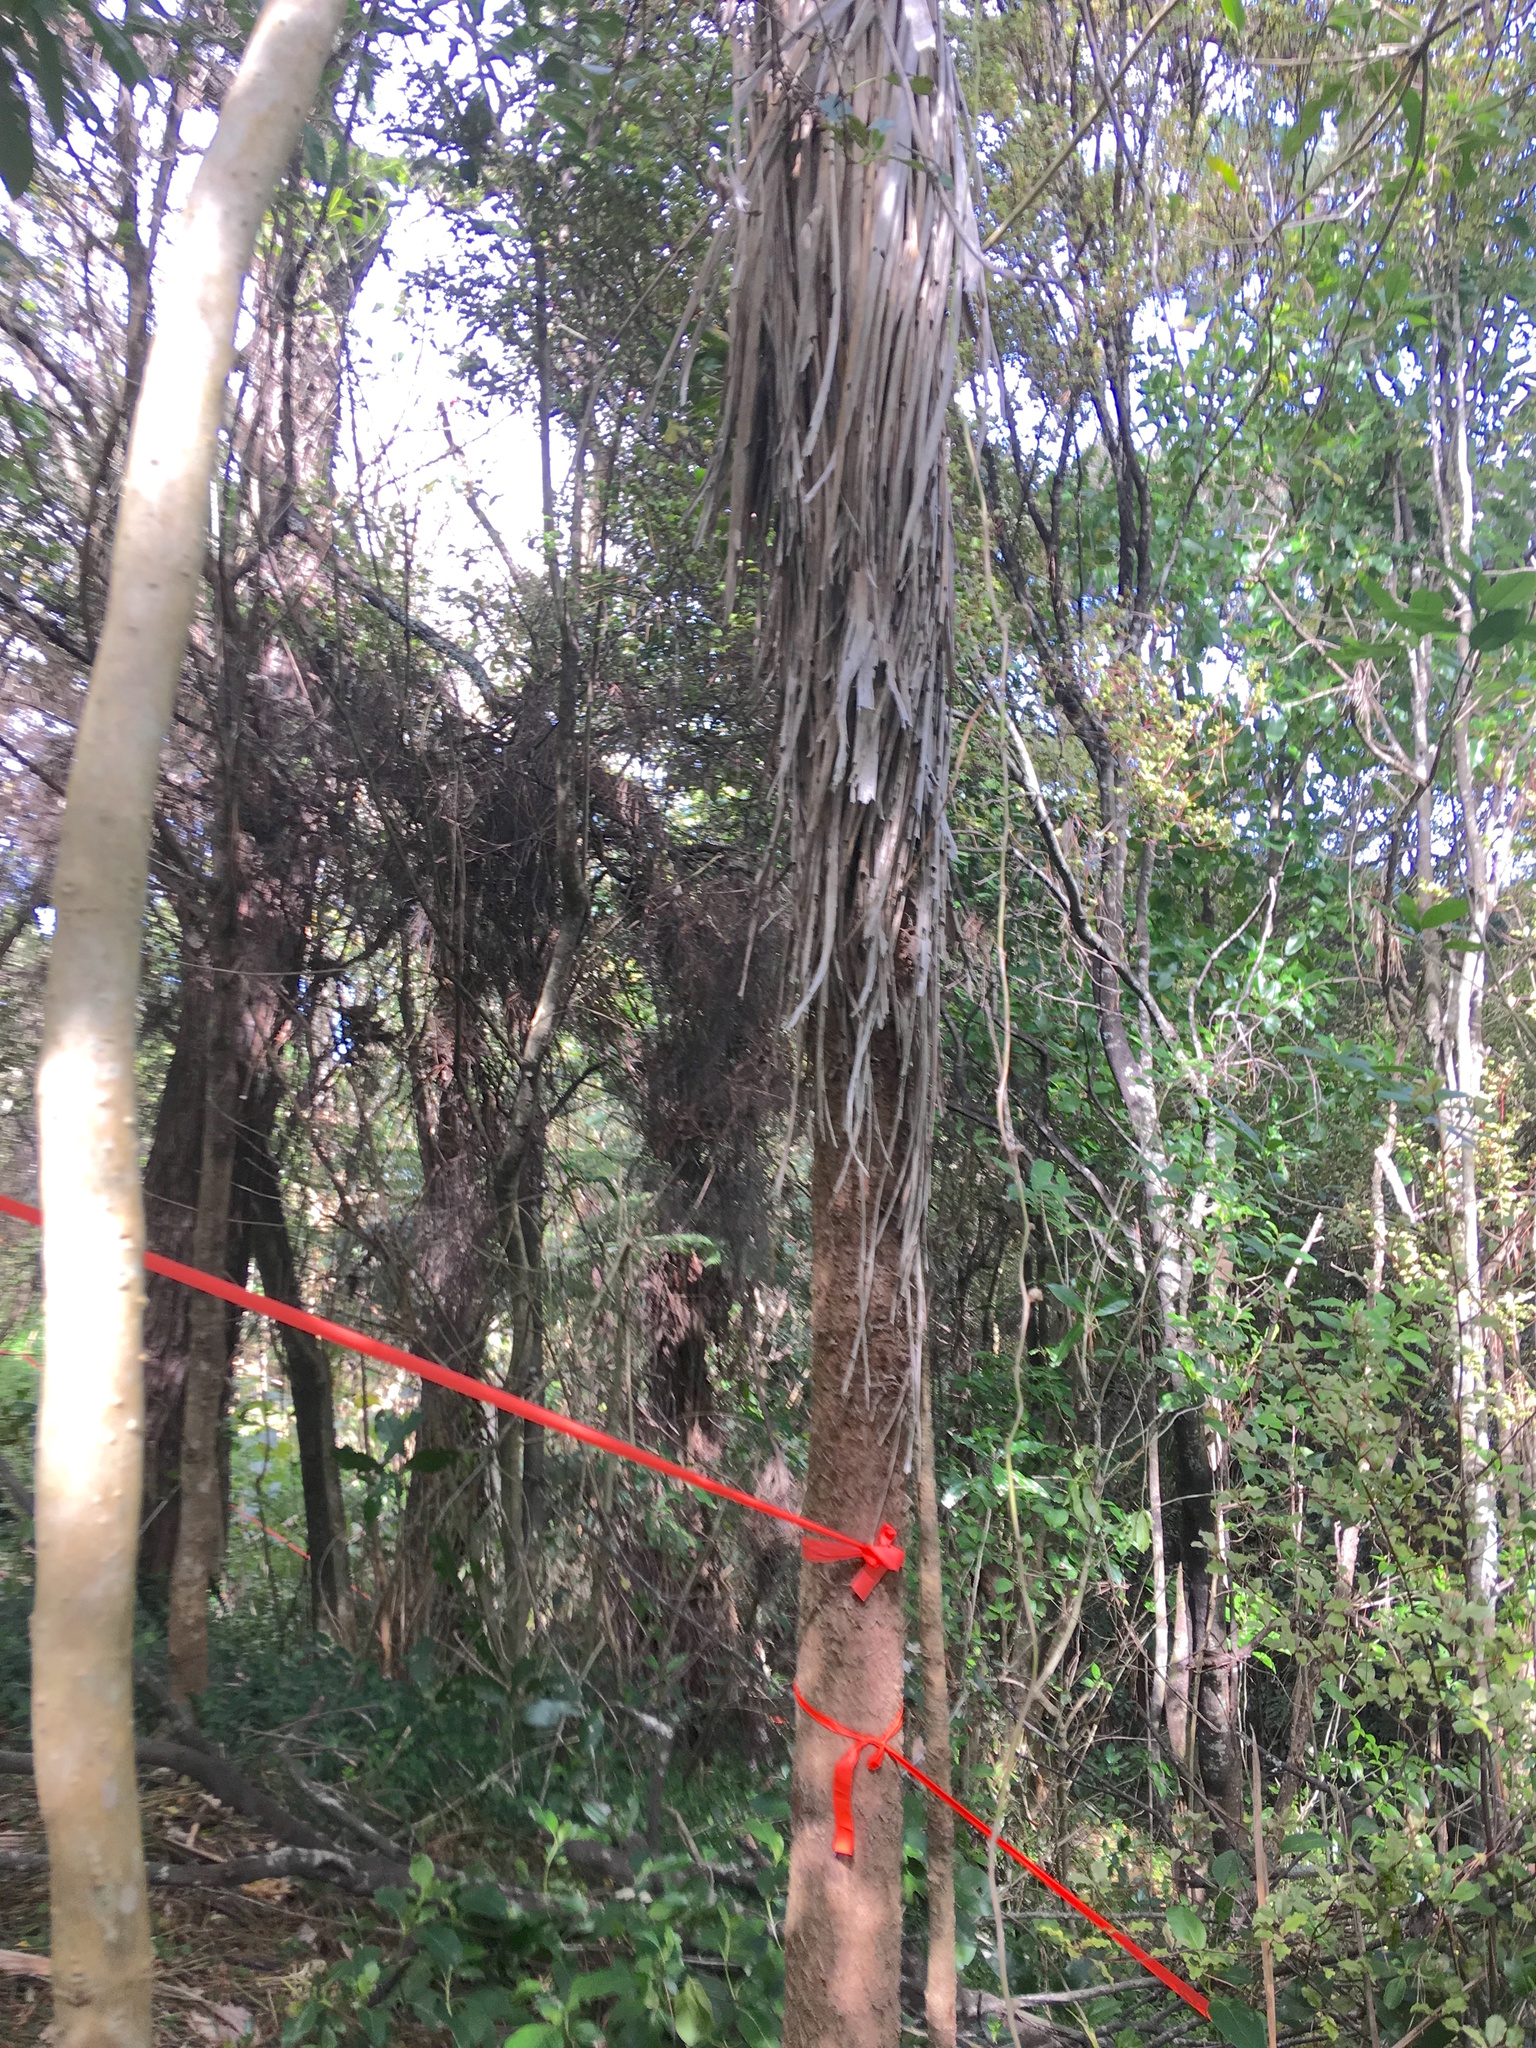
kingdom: Plantae
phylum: Tracheophyta
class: Liliopsida
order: Asparagales
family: Asparagaceae
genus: Cordyline
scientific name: Cordyline australis
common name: Cabbage-palm
